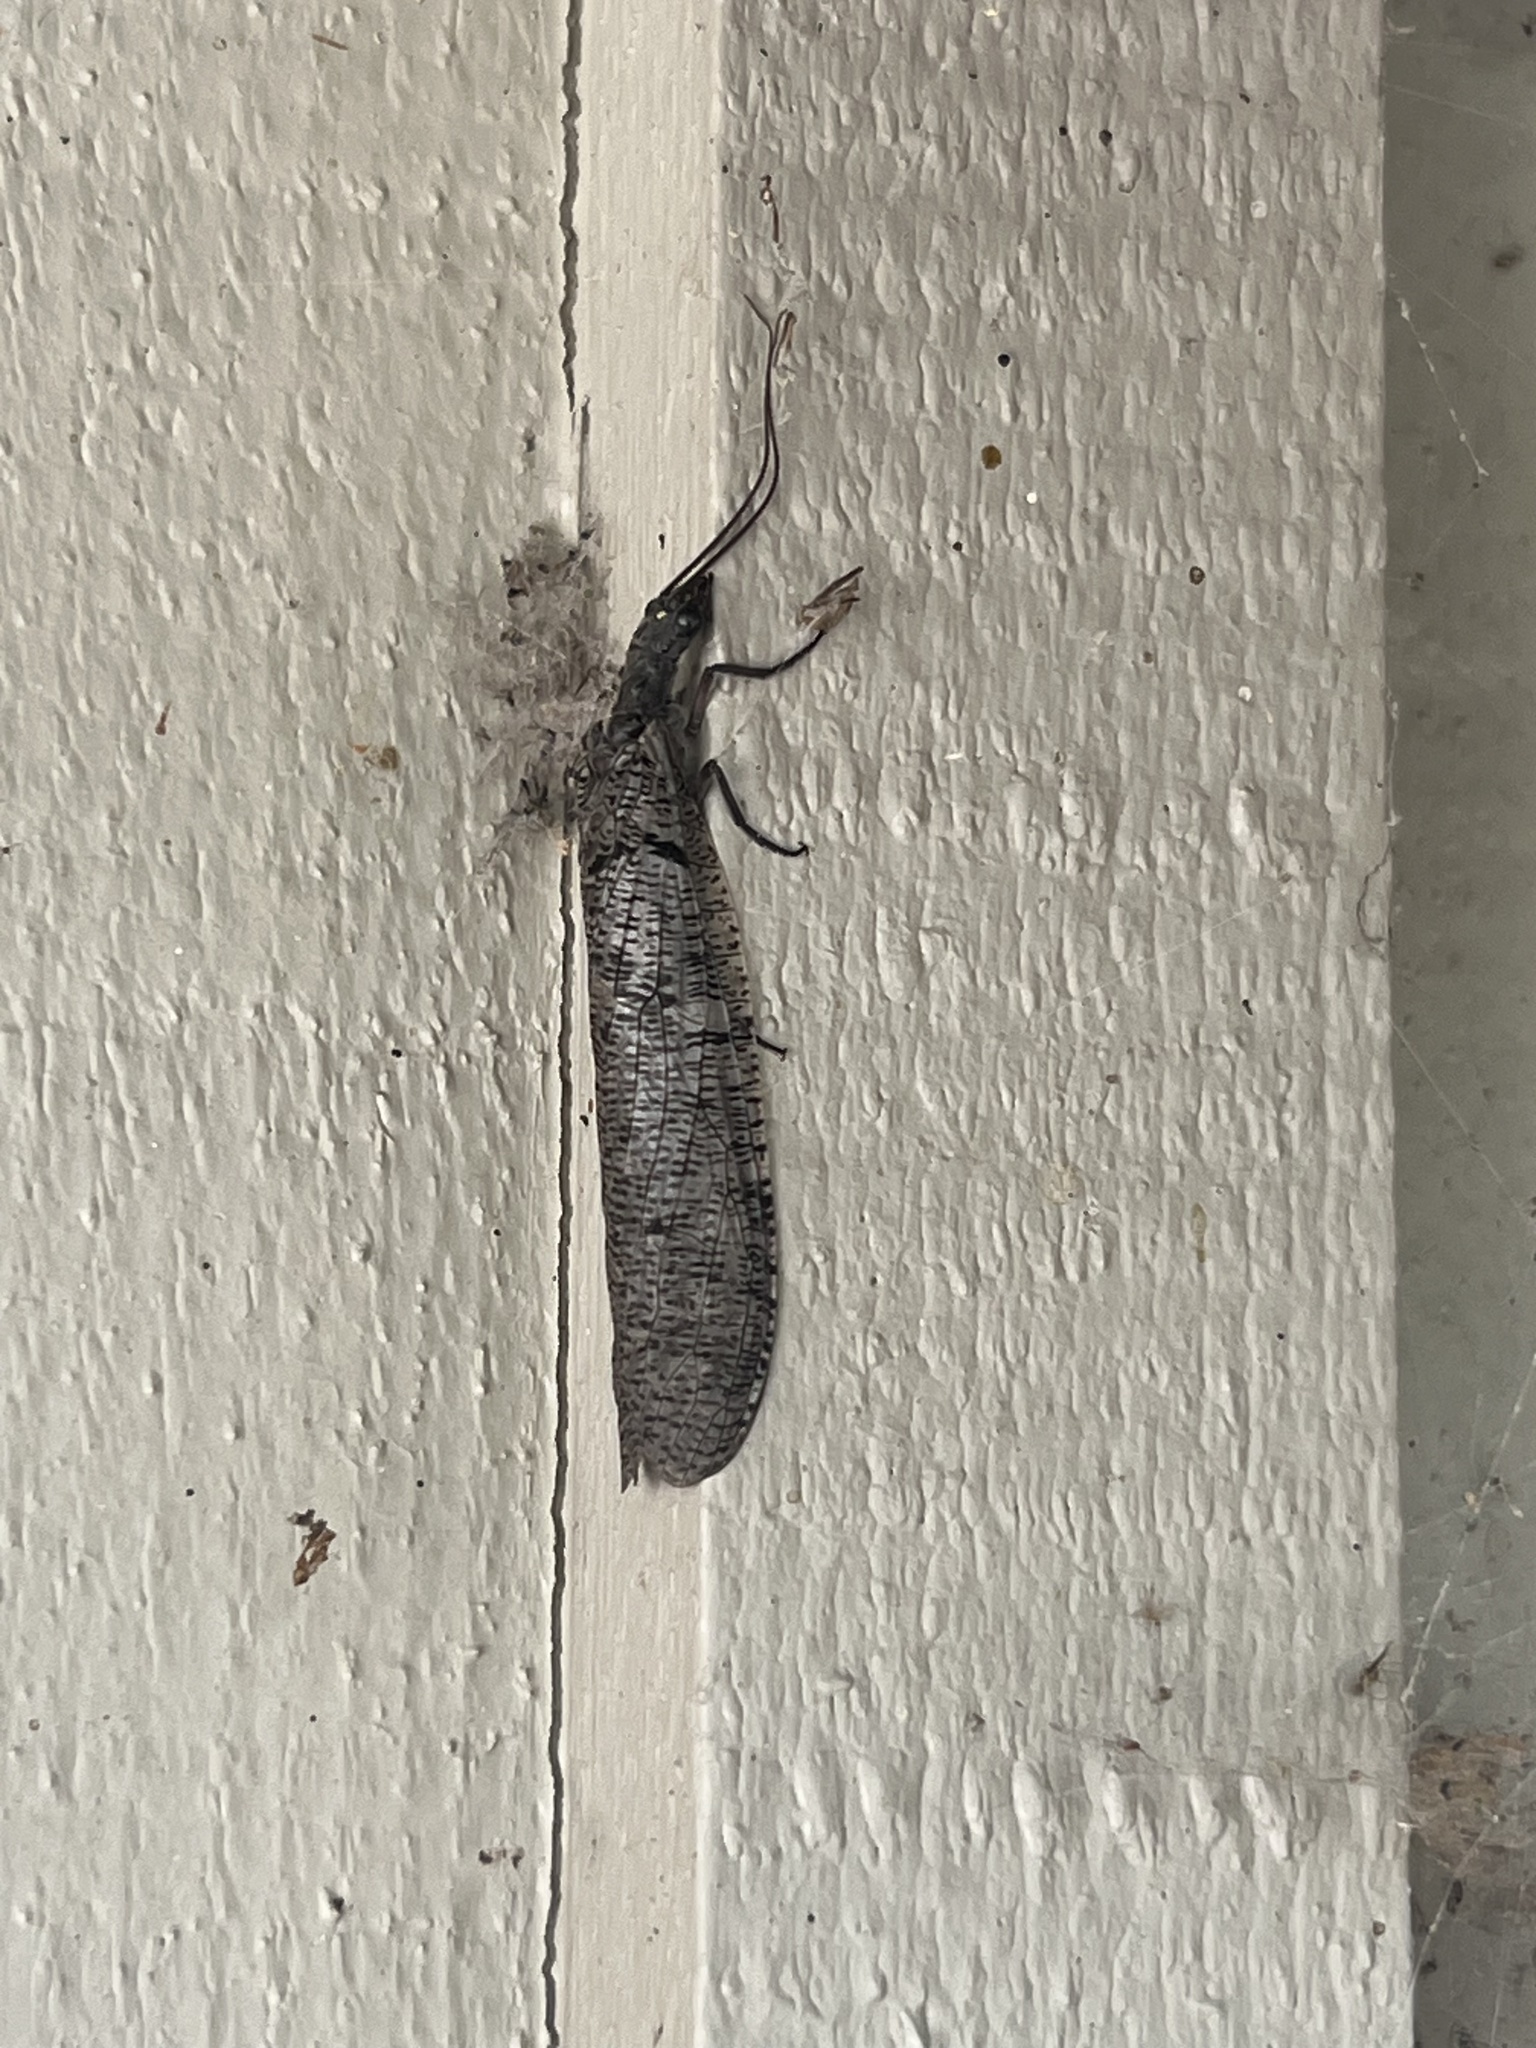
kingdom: Animalia
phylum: Arthropoda
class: Insecta
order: Megaloptera
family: Corydalidae
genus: Neohermes
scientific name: Neohermes filicornis
